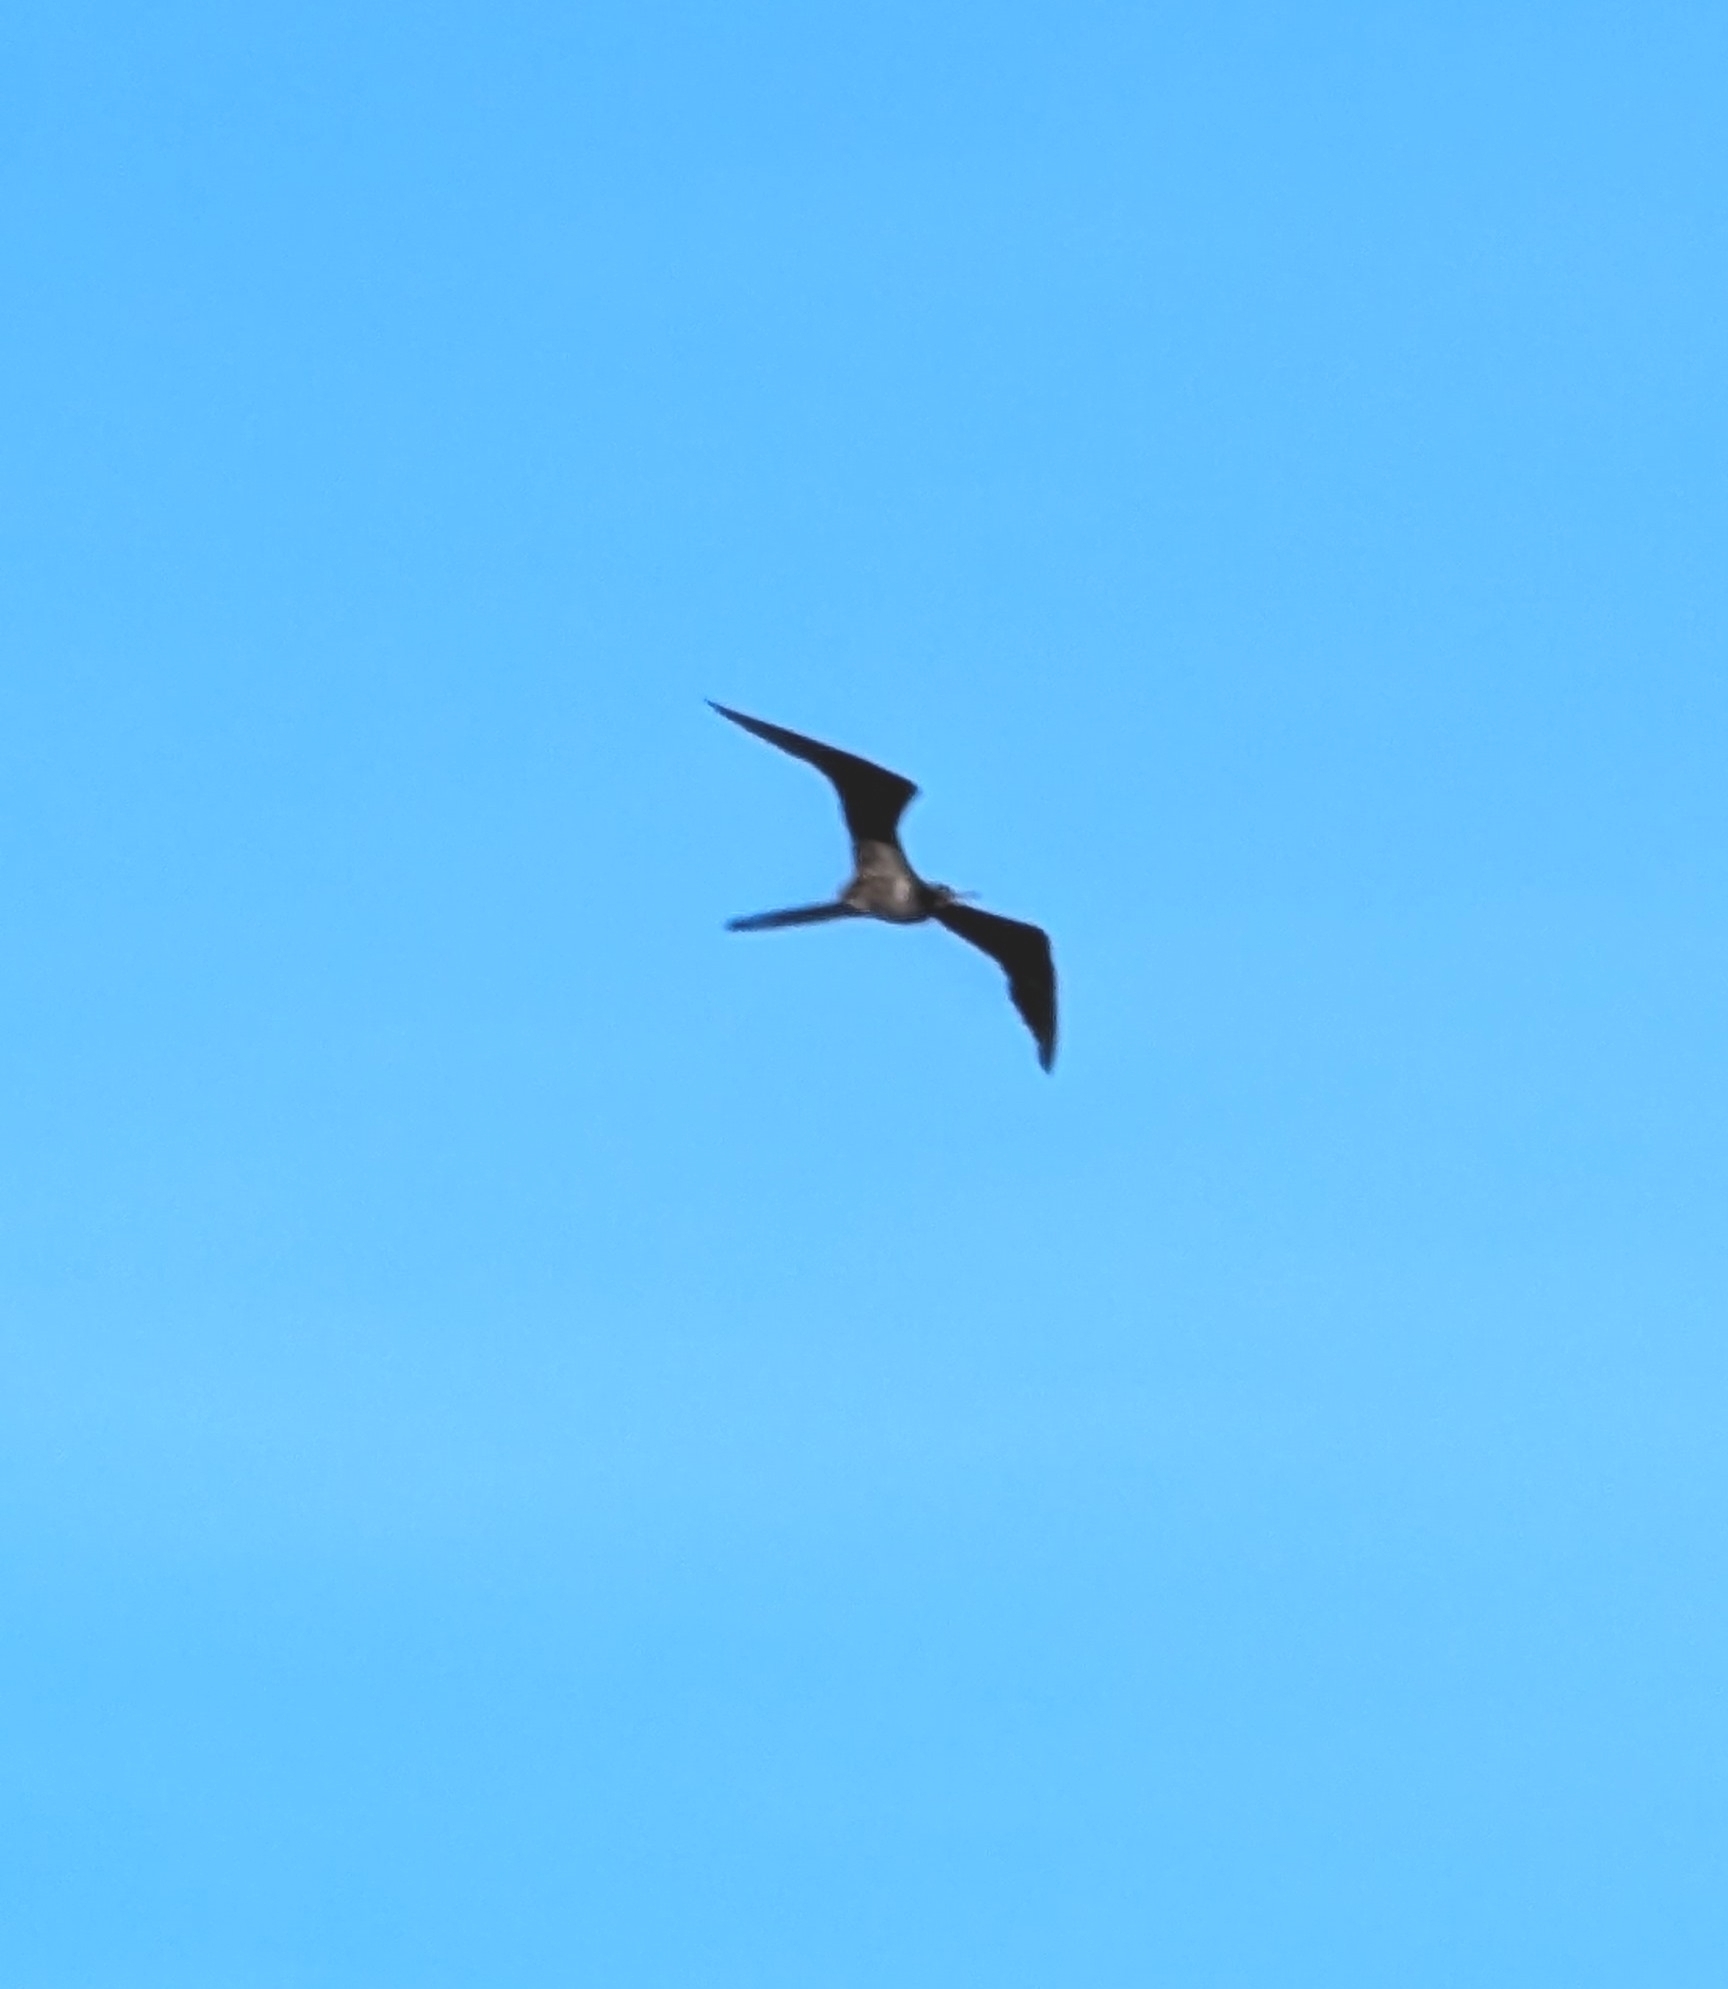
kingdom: Animalia
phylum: Chordata
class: Aves
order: Suliformes
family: Fregatidae
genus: Fregata
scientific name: Fregata magnificens
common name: Magnificent frigatebird
